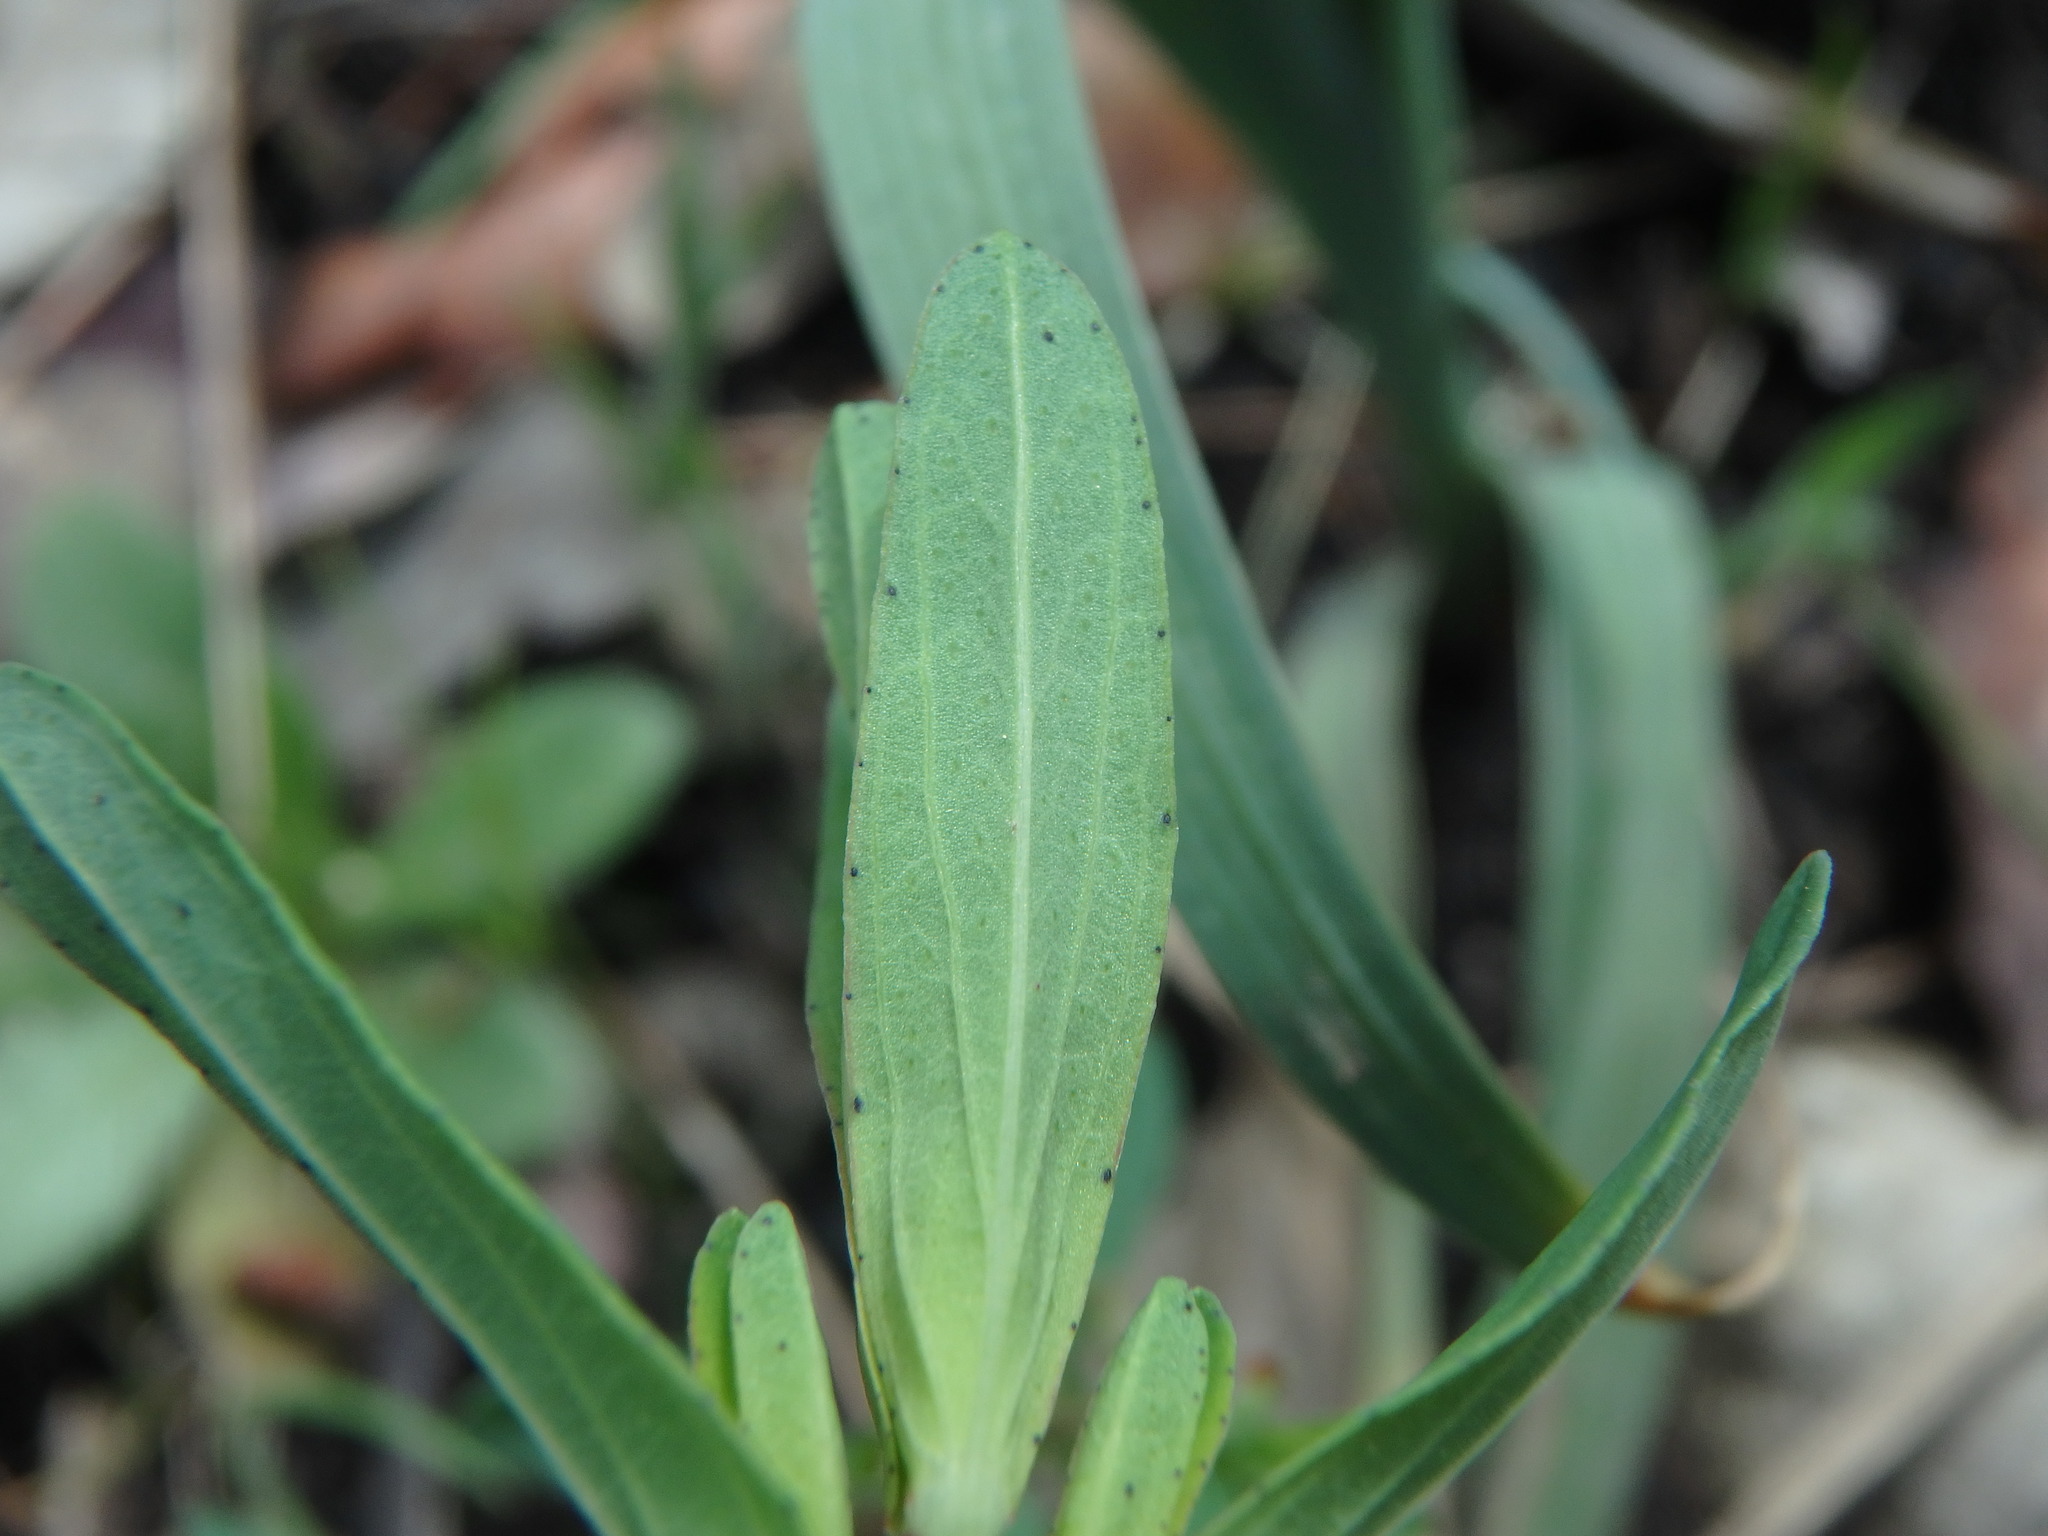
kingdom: Plantae
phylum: Tracheophyta
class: Magnoliopsida
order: Malpighiales
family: Hypericaceae
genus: Hypericum
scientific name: Hypericum perforatum
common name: Common st. johnswort
